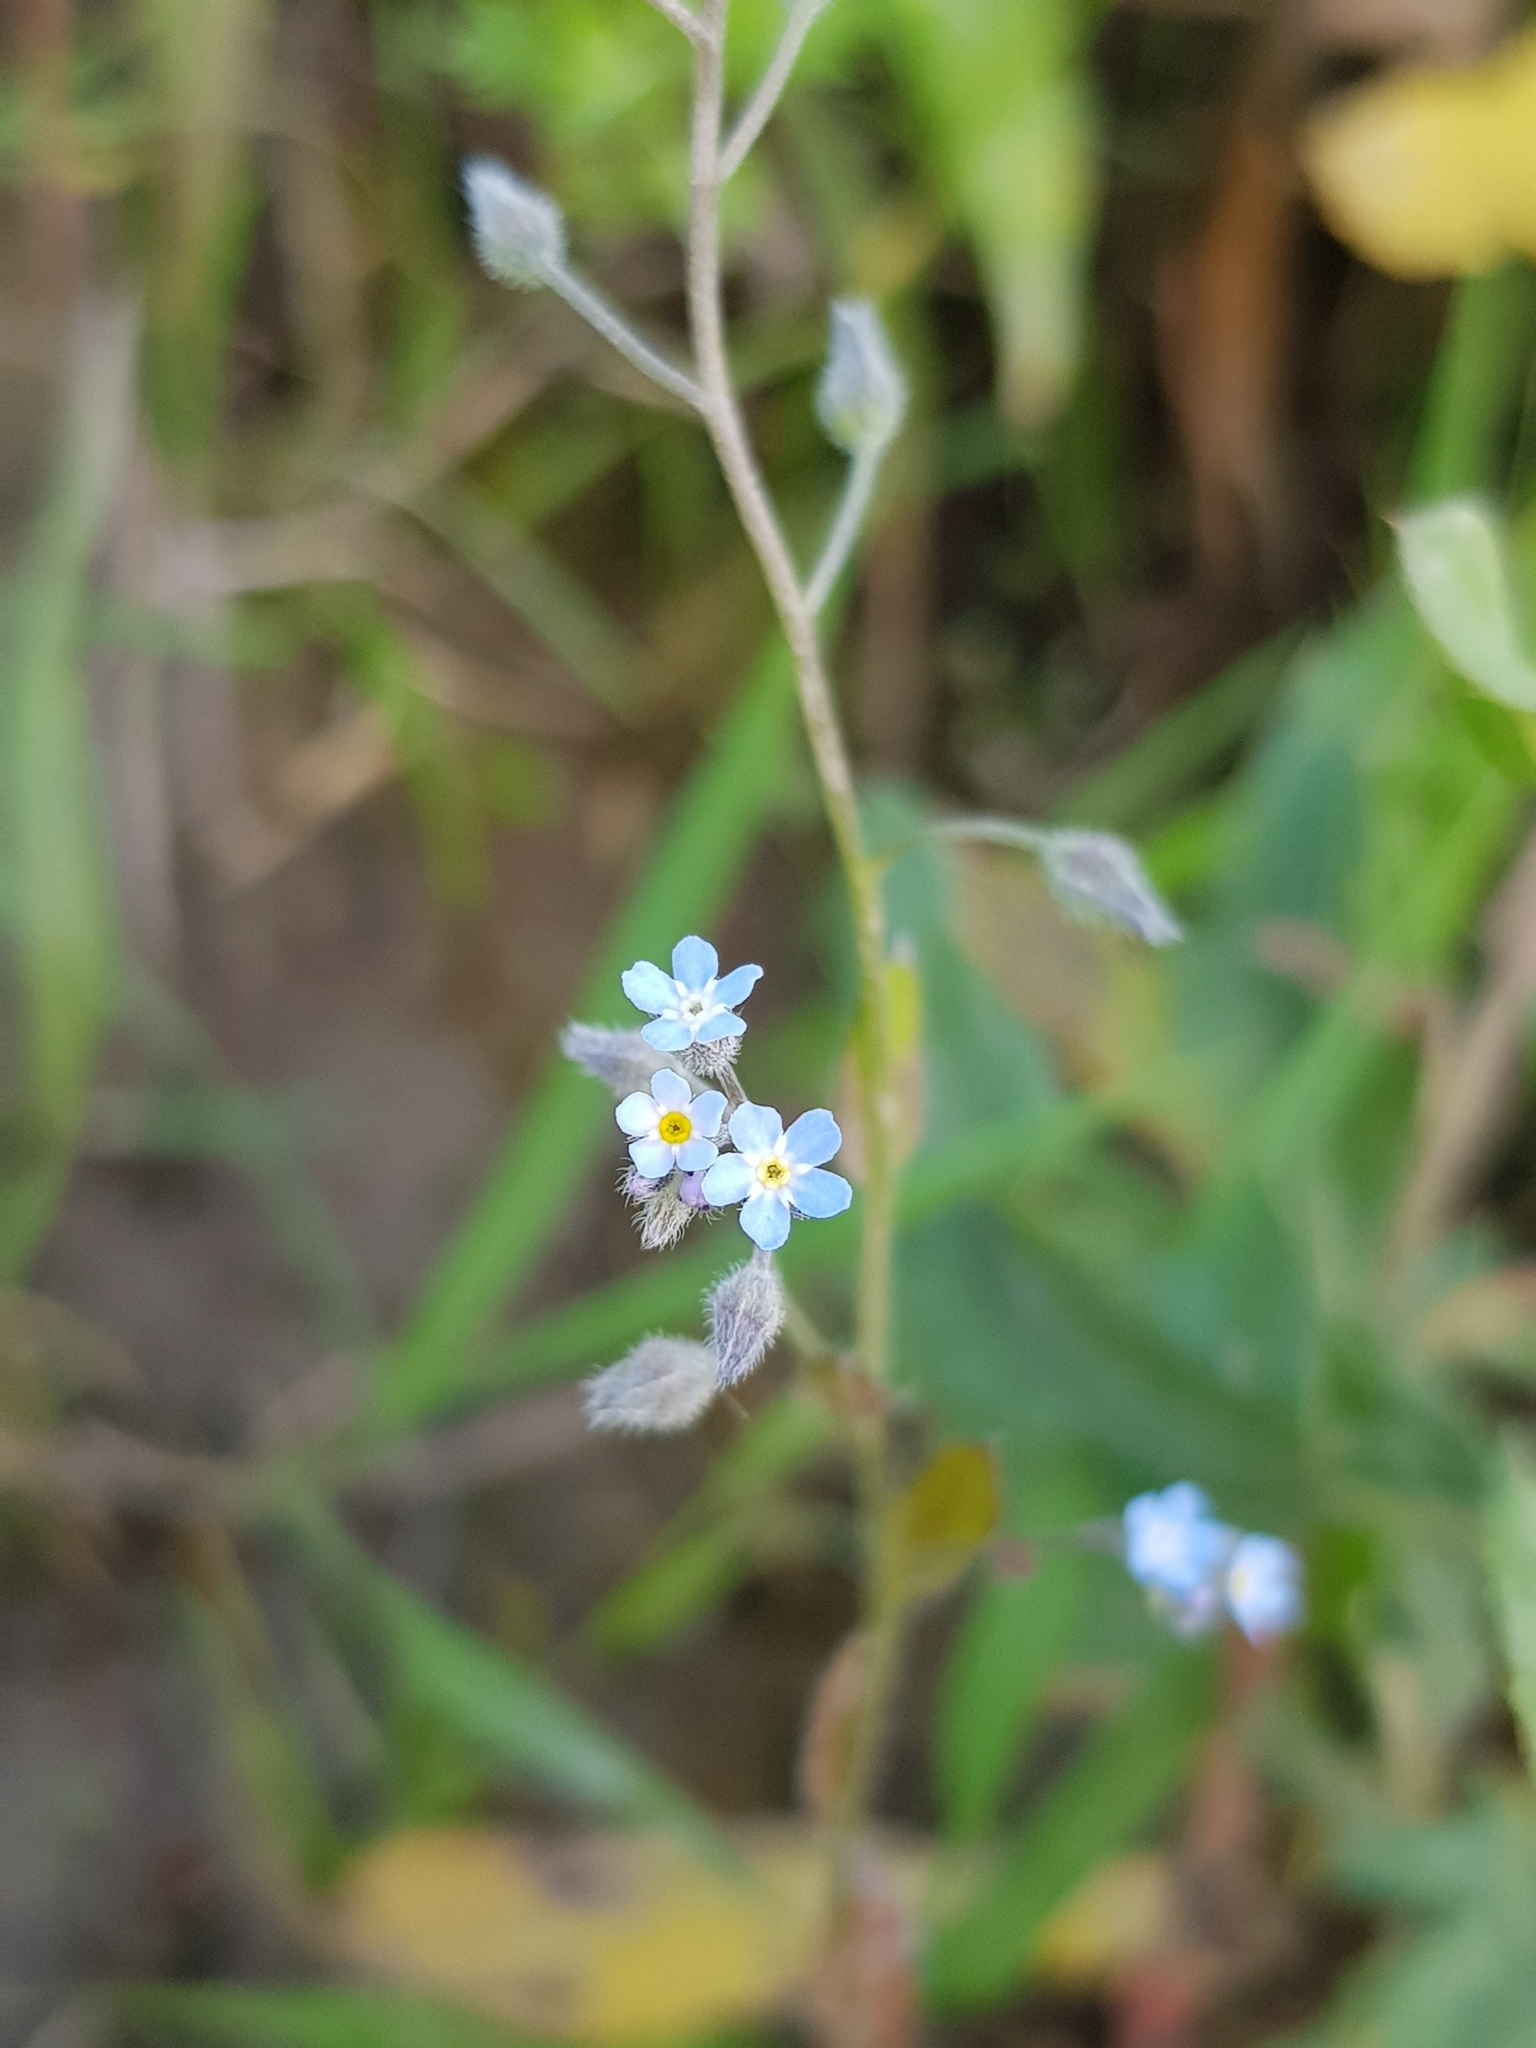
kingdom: Plantae
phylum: Tracheophyta
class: Magnoliopsida
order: Boraginales
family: Boraginaceae
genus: Myosotis
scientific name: Myosotis arvensis
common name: Field forget-me-not
